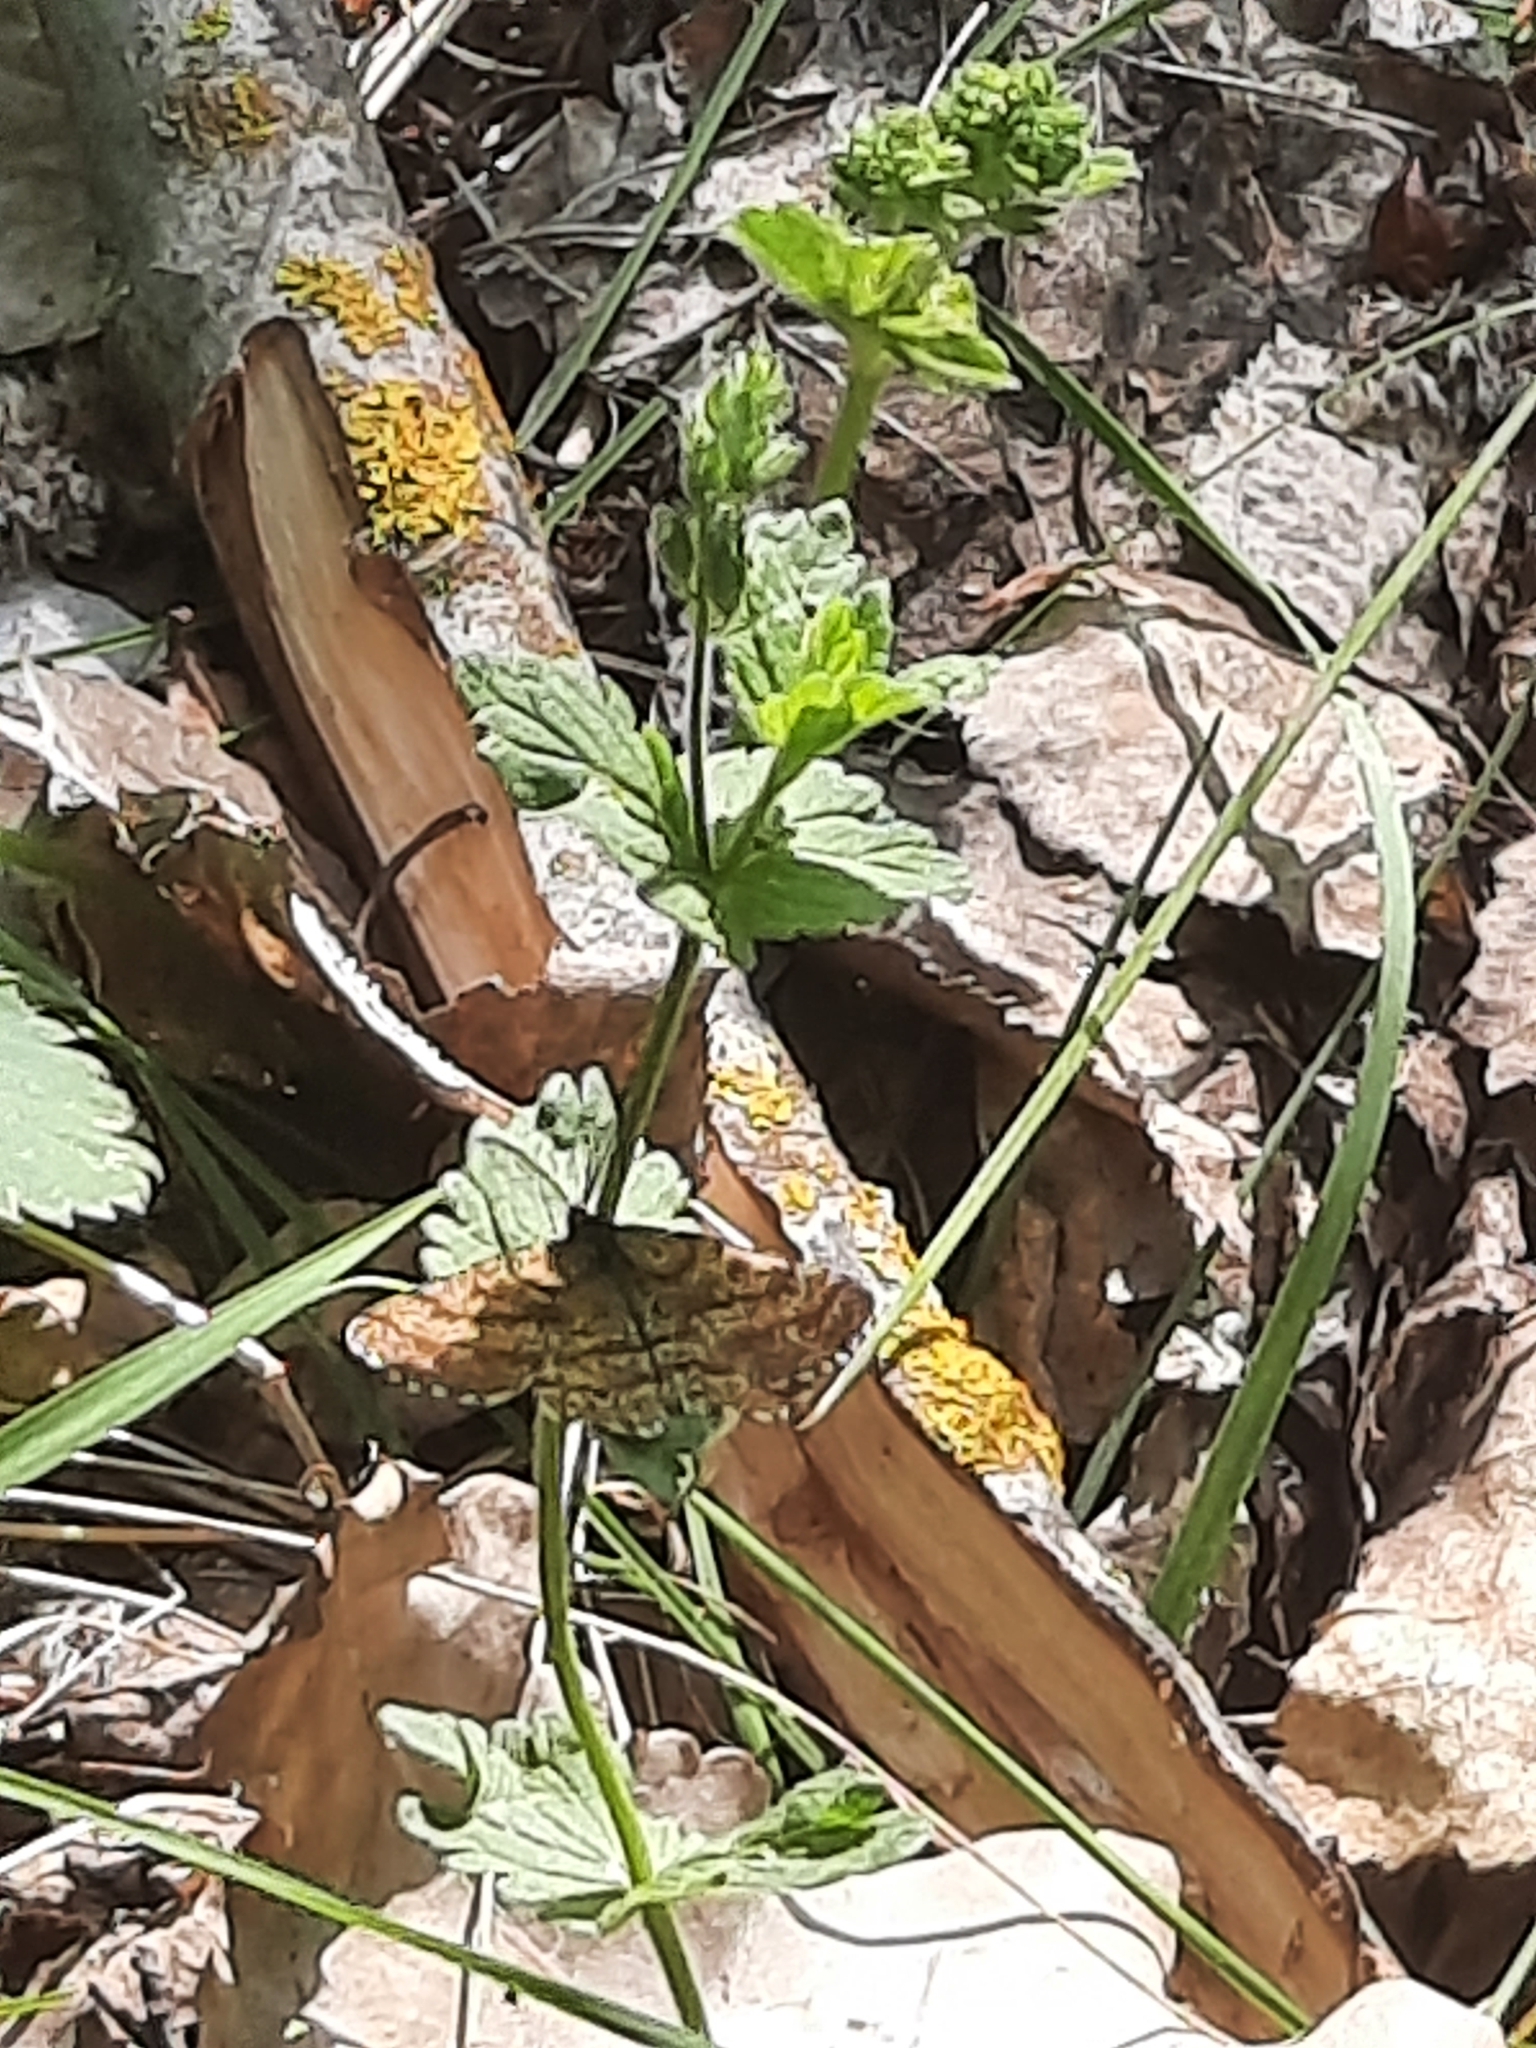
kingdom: Animalia
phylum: Arthropoda
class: Insecta
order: Lepidoptera
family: Geometridae
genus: Ematurga
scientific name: Ematurga atomaria
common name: Common heath
